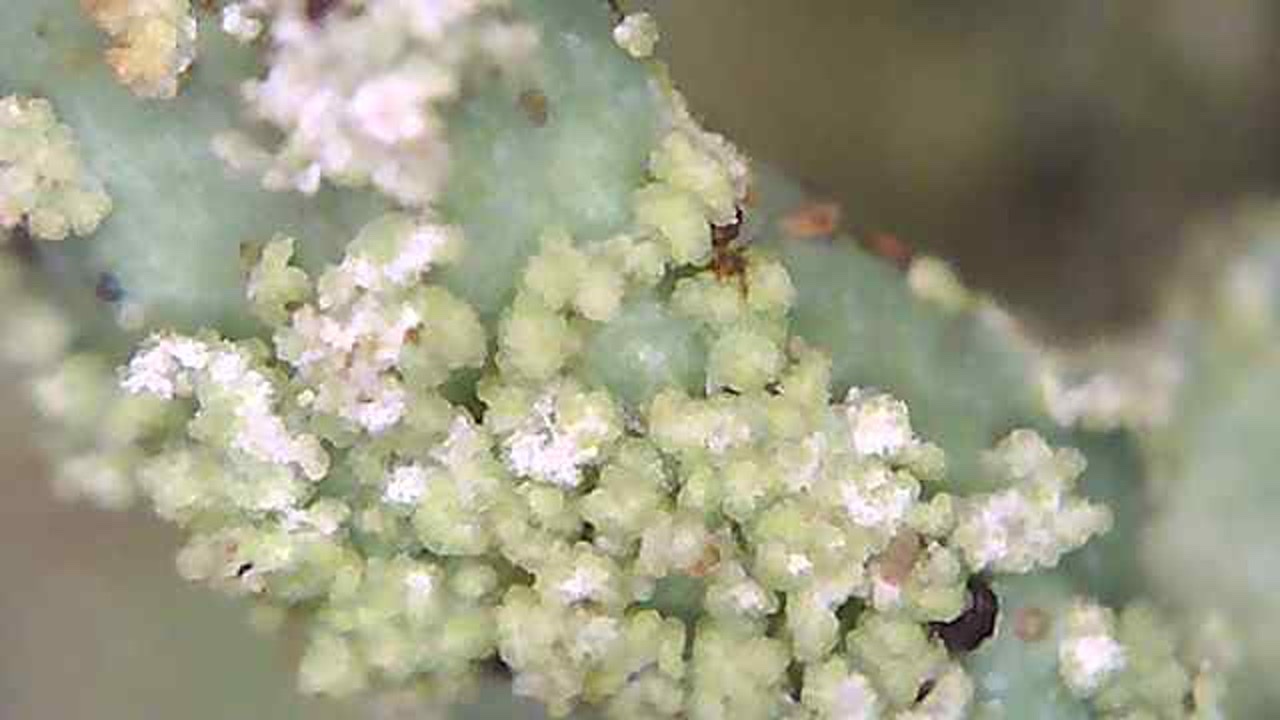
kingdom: Fungi
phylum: Ascomycota
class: Lecanoromycetes
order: Lecanorales
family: Parmeliaceae
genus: Parmelia
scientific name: Parmelia hygrophila
